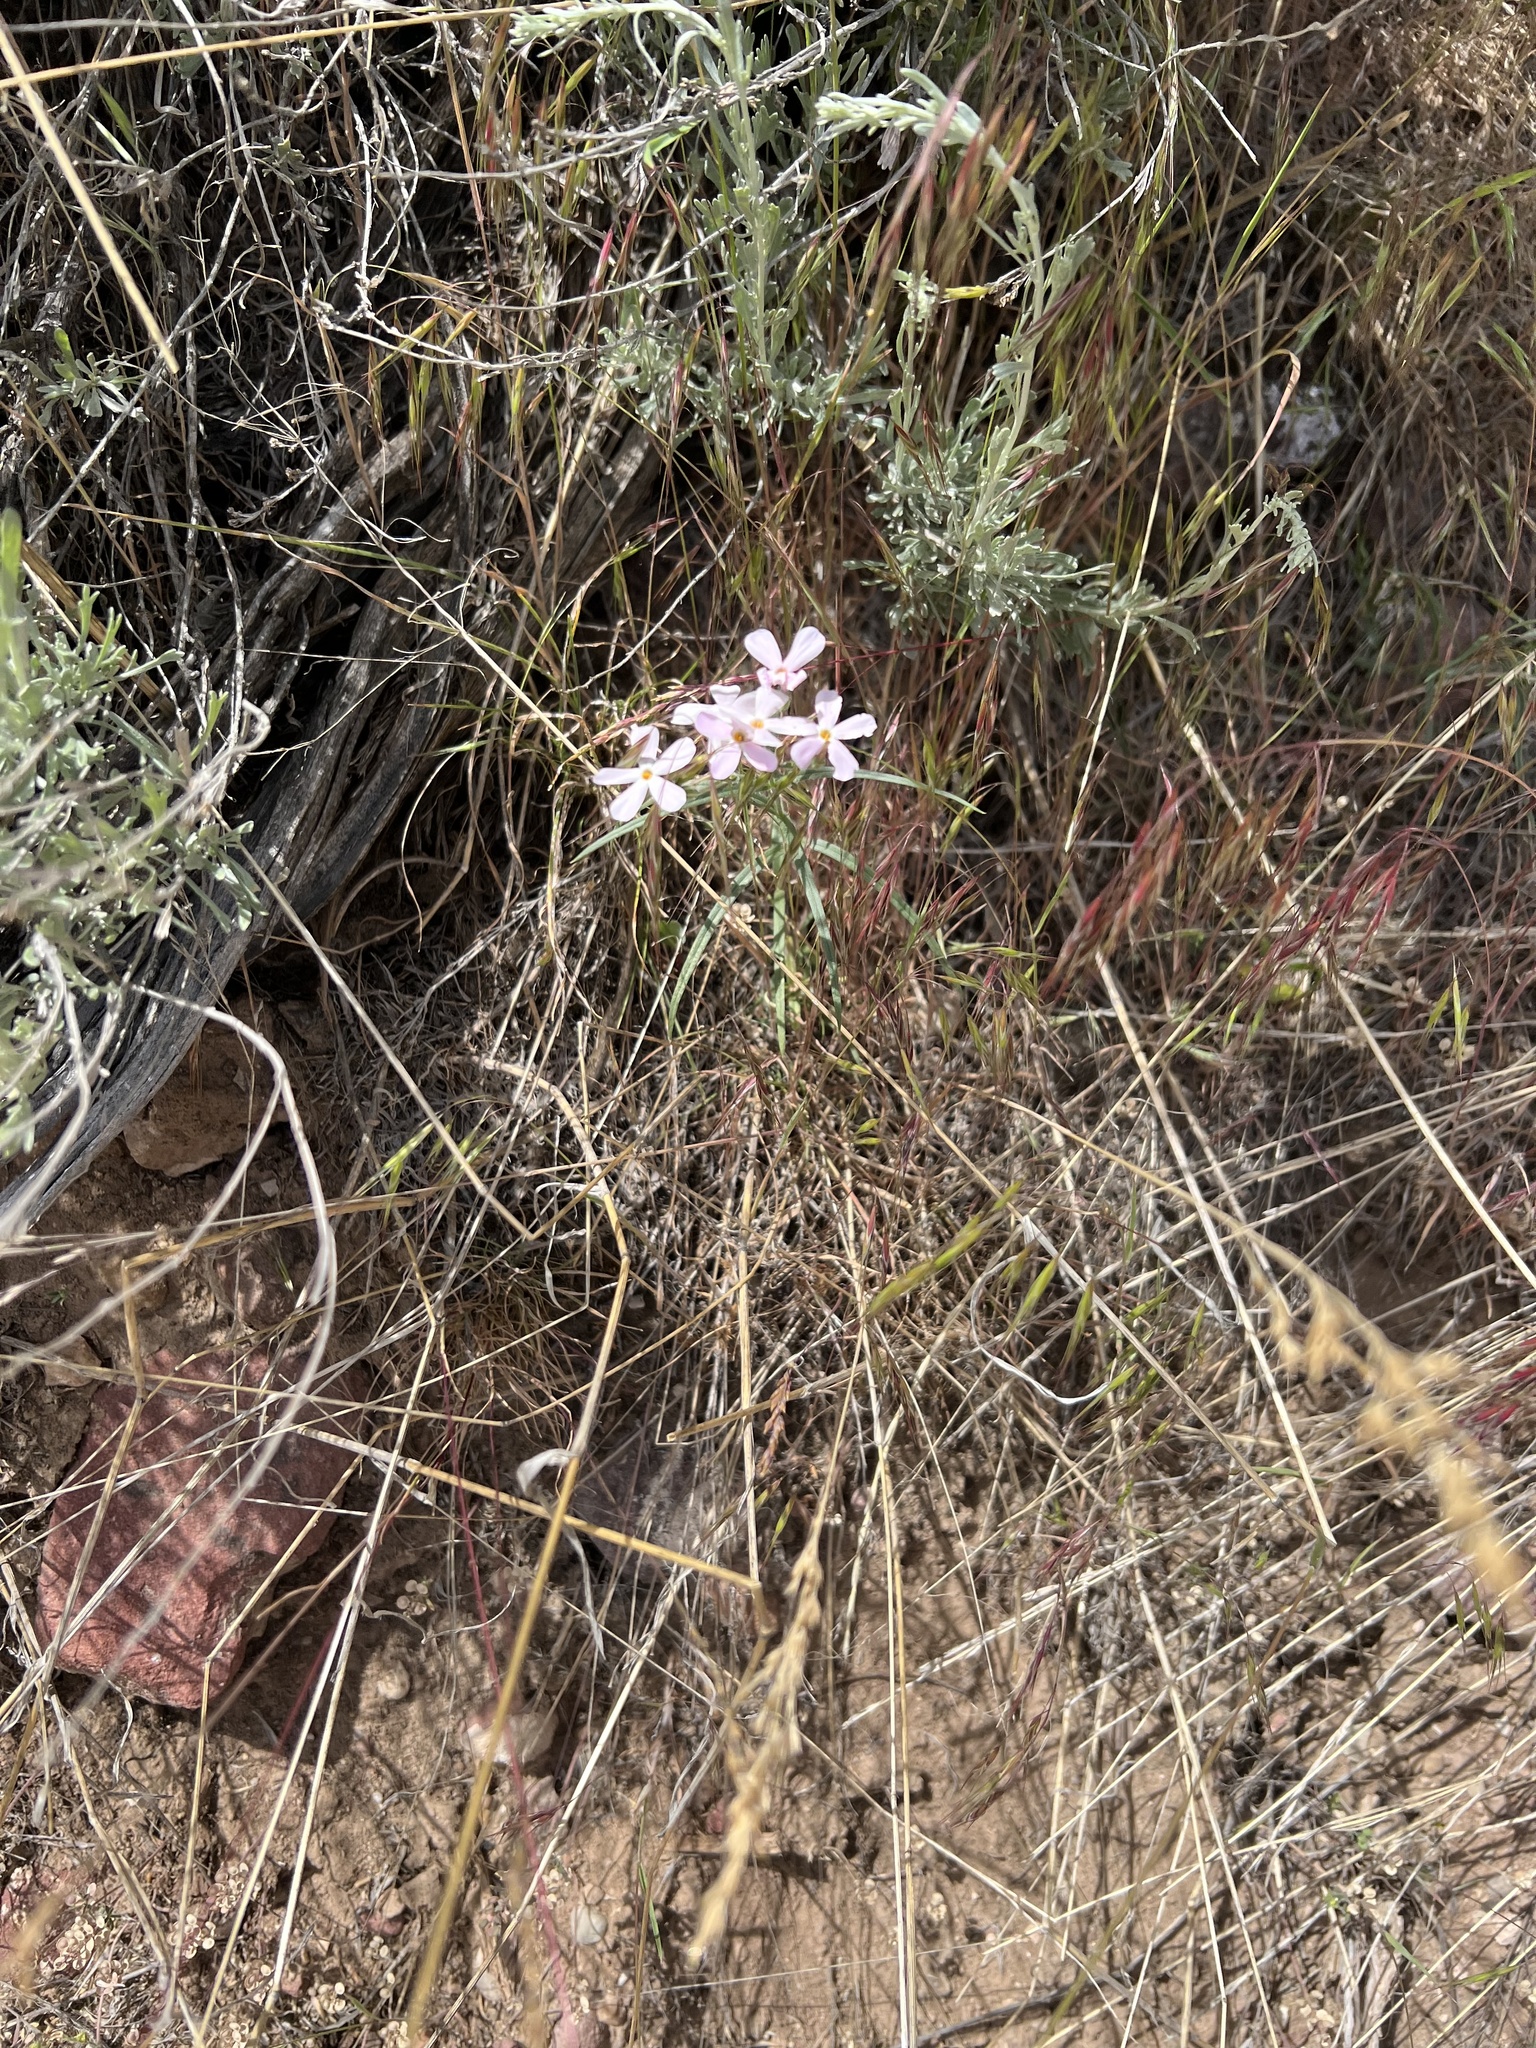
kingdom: Plantae
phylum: Tracheophyta
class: Magnoliopsida
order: Ericales
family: Polemoniaceae
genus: Phlox
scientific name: Phlox longifolia
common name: Longleaf phlox
